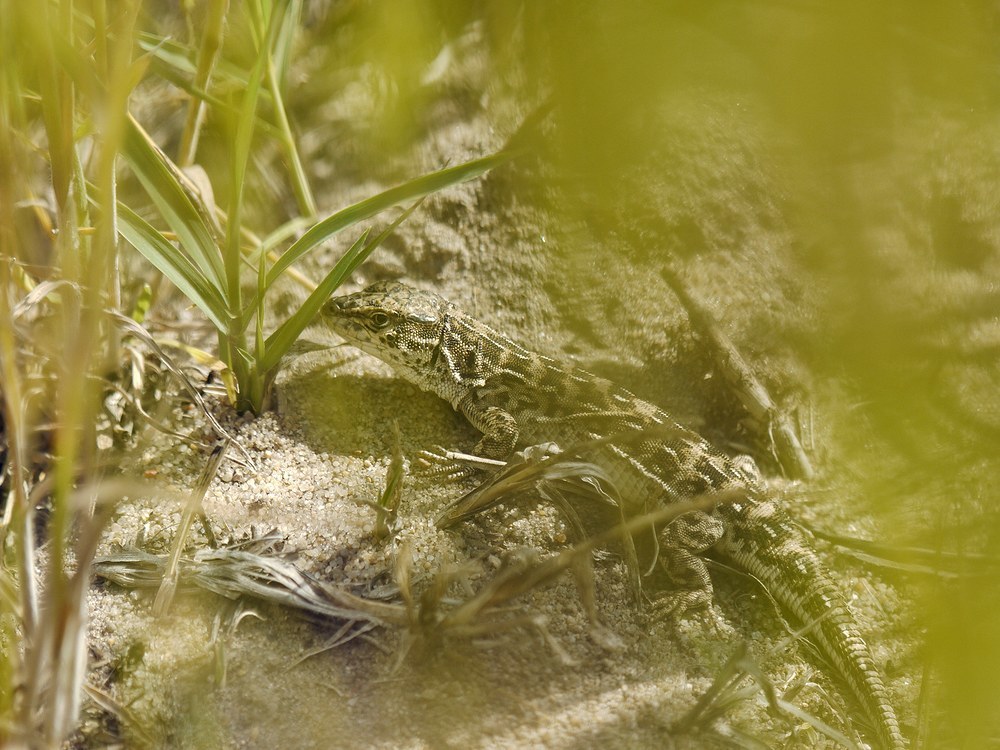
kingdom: Animalia
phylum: Chordata
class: Squamata
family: Lacertidae
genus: Eremias
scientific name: Eremias arguta
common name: Racerunner
